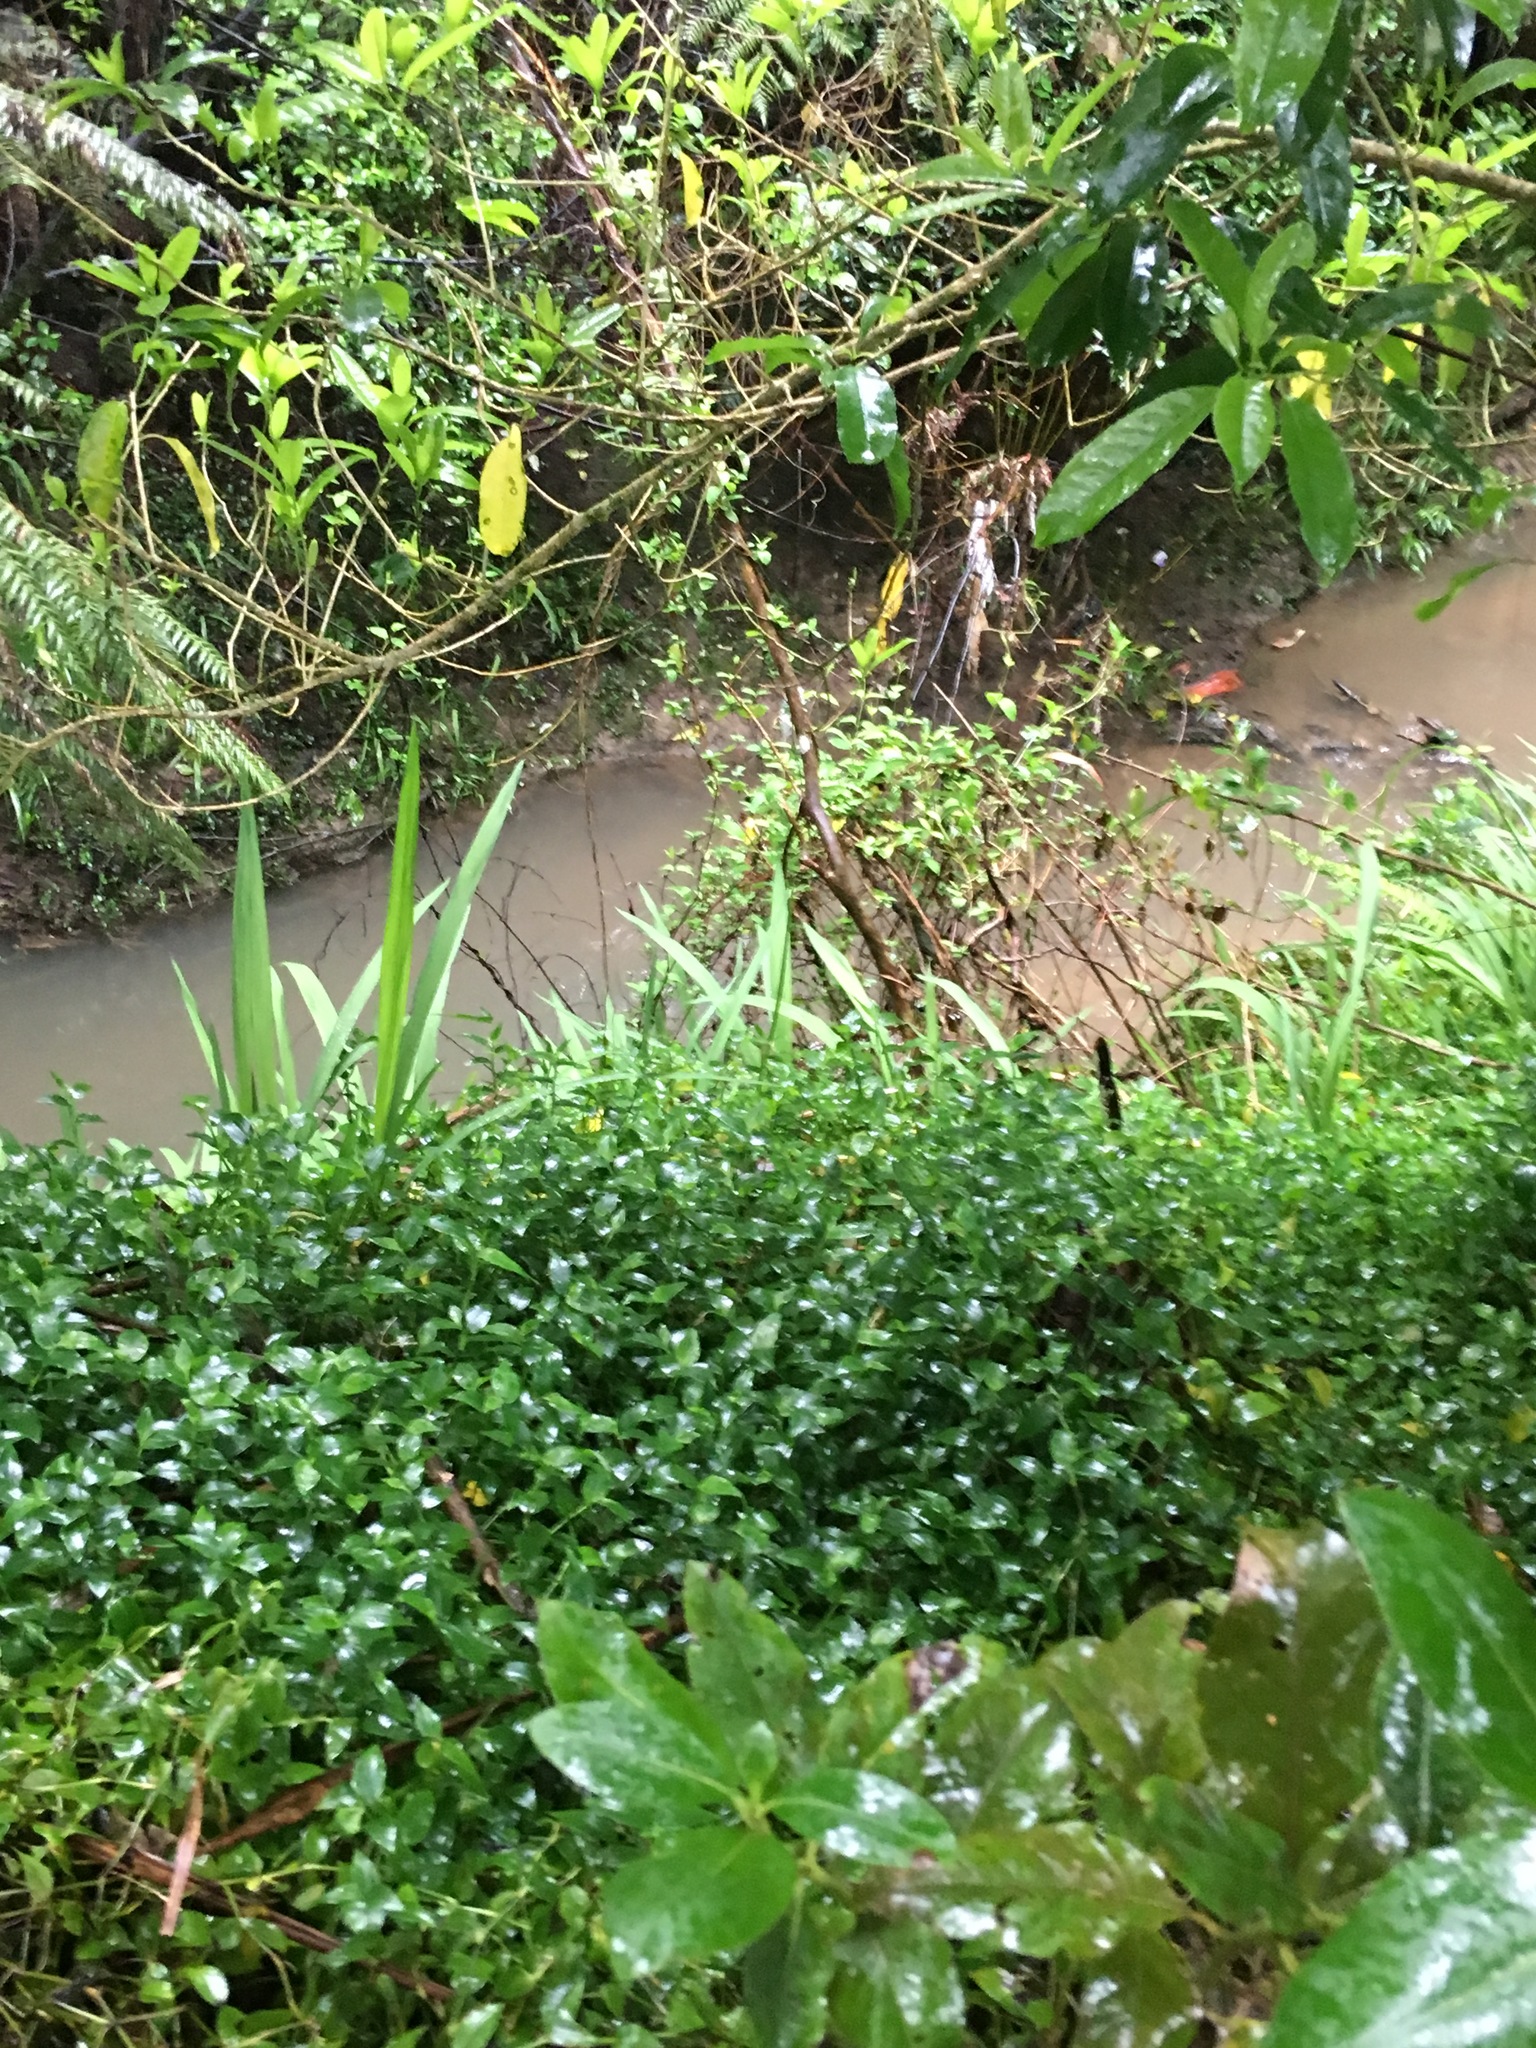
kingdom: Plantae
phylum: Tracheophyta
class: Liliopsida
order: Commelinales
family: Commelinaceae
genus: Tradescantia
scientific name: Tradescantia fluminensis
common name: Wandering-jew
